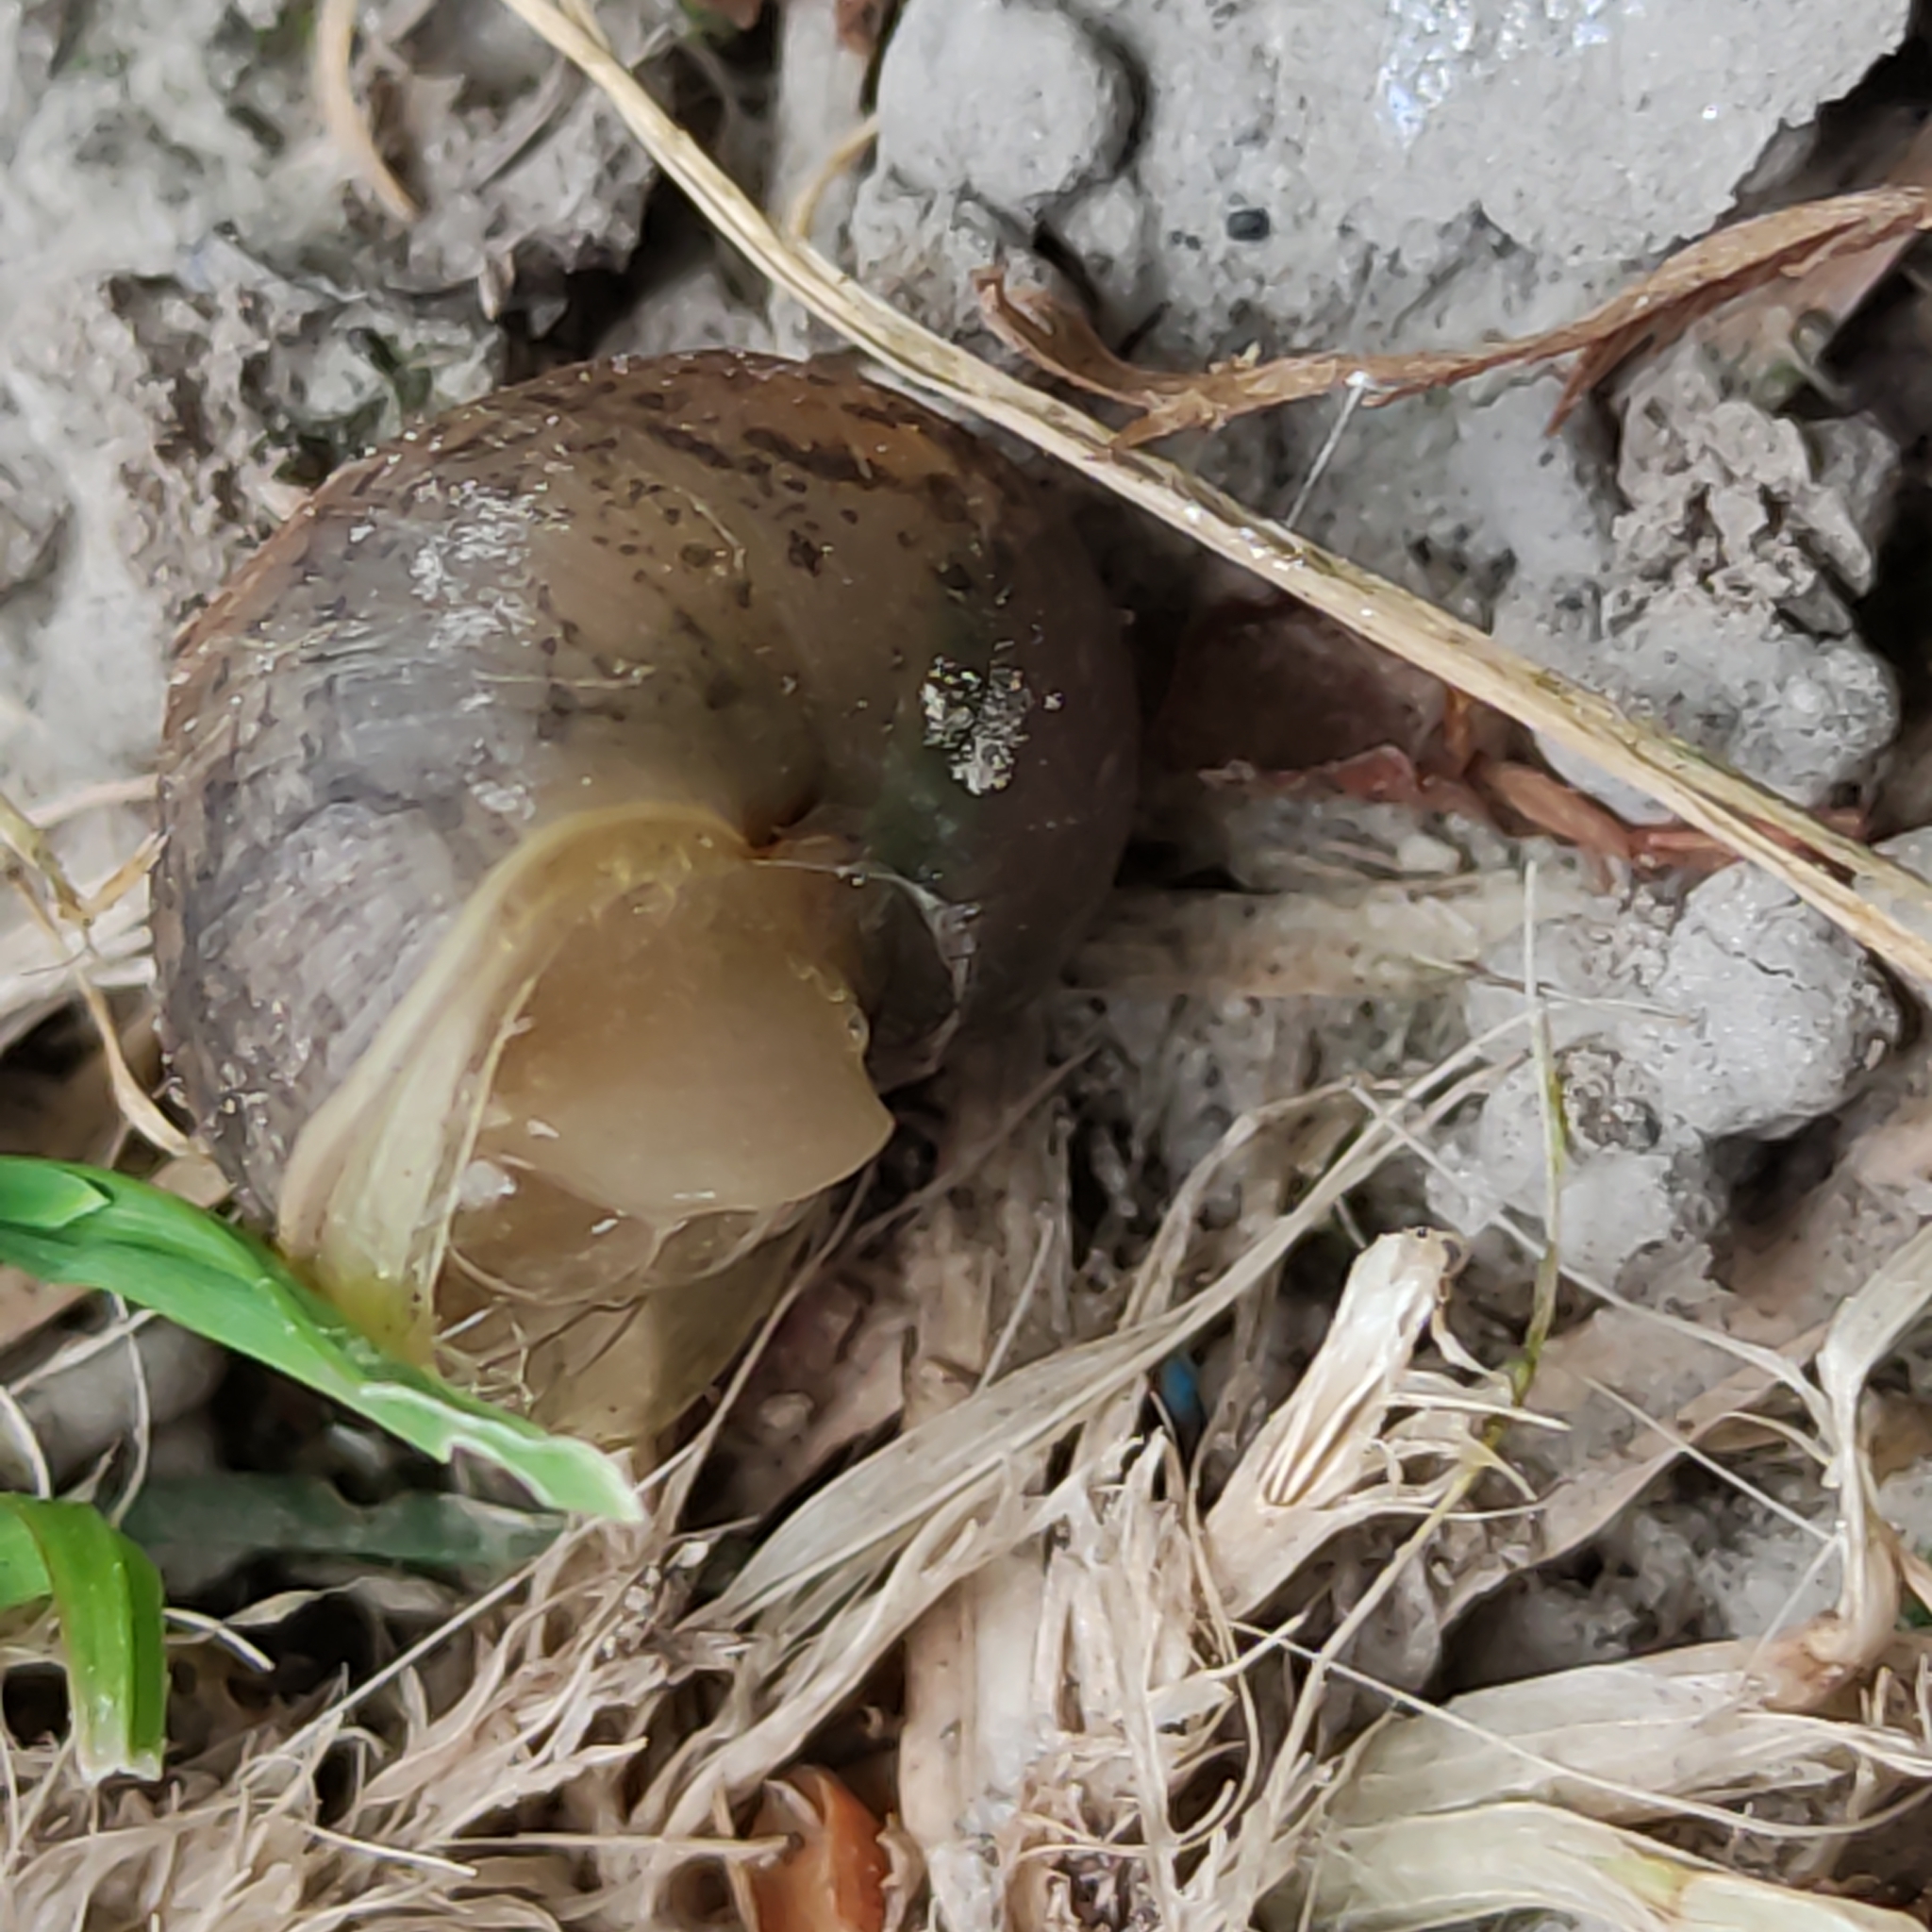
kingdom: Animalia
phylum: Mollusca
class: Gastropoda
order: Stylommatophora
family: Helicidae
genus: Cornu
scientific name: Cornu aspersum
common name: Brown garden snail
